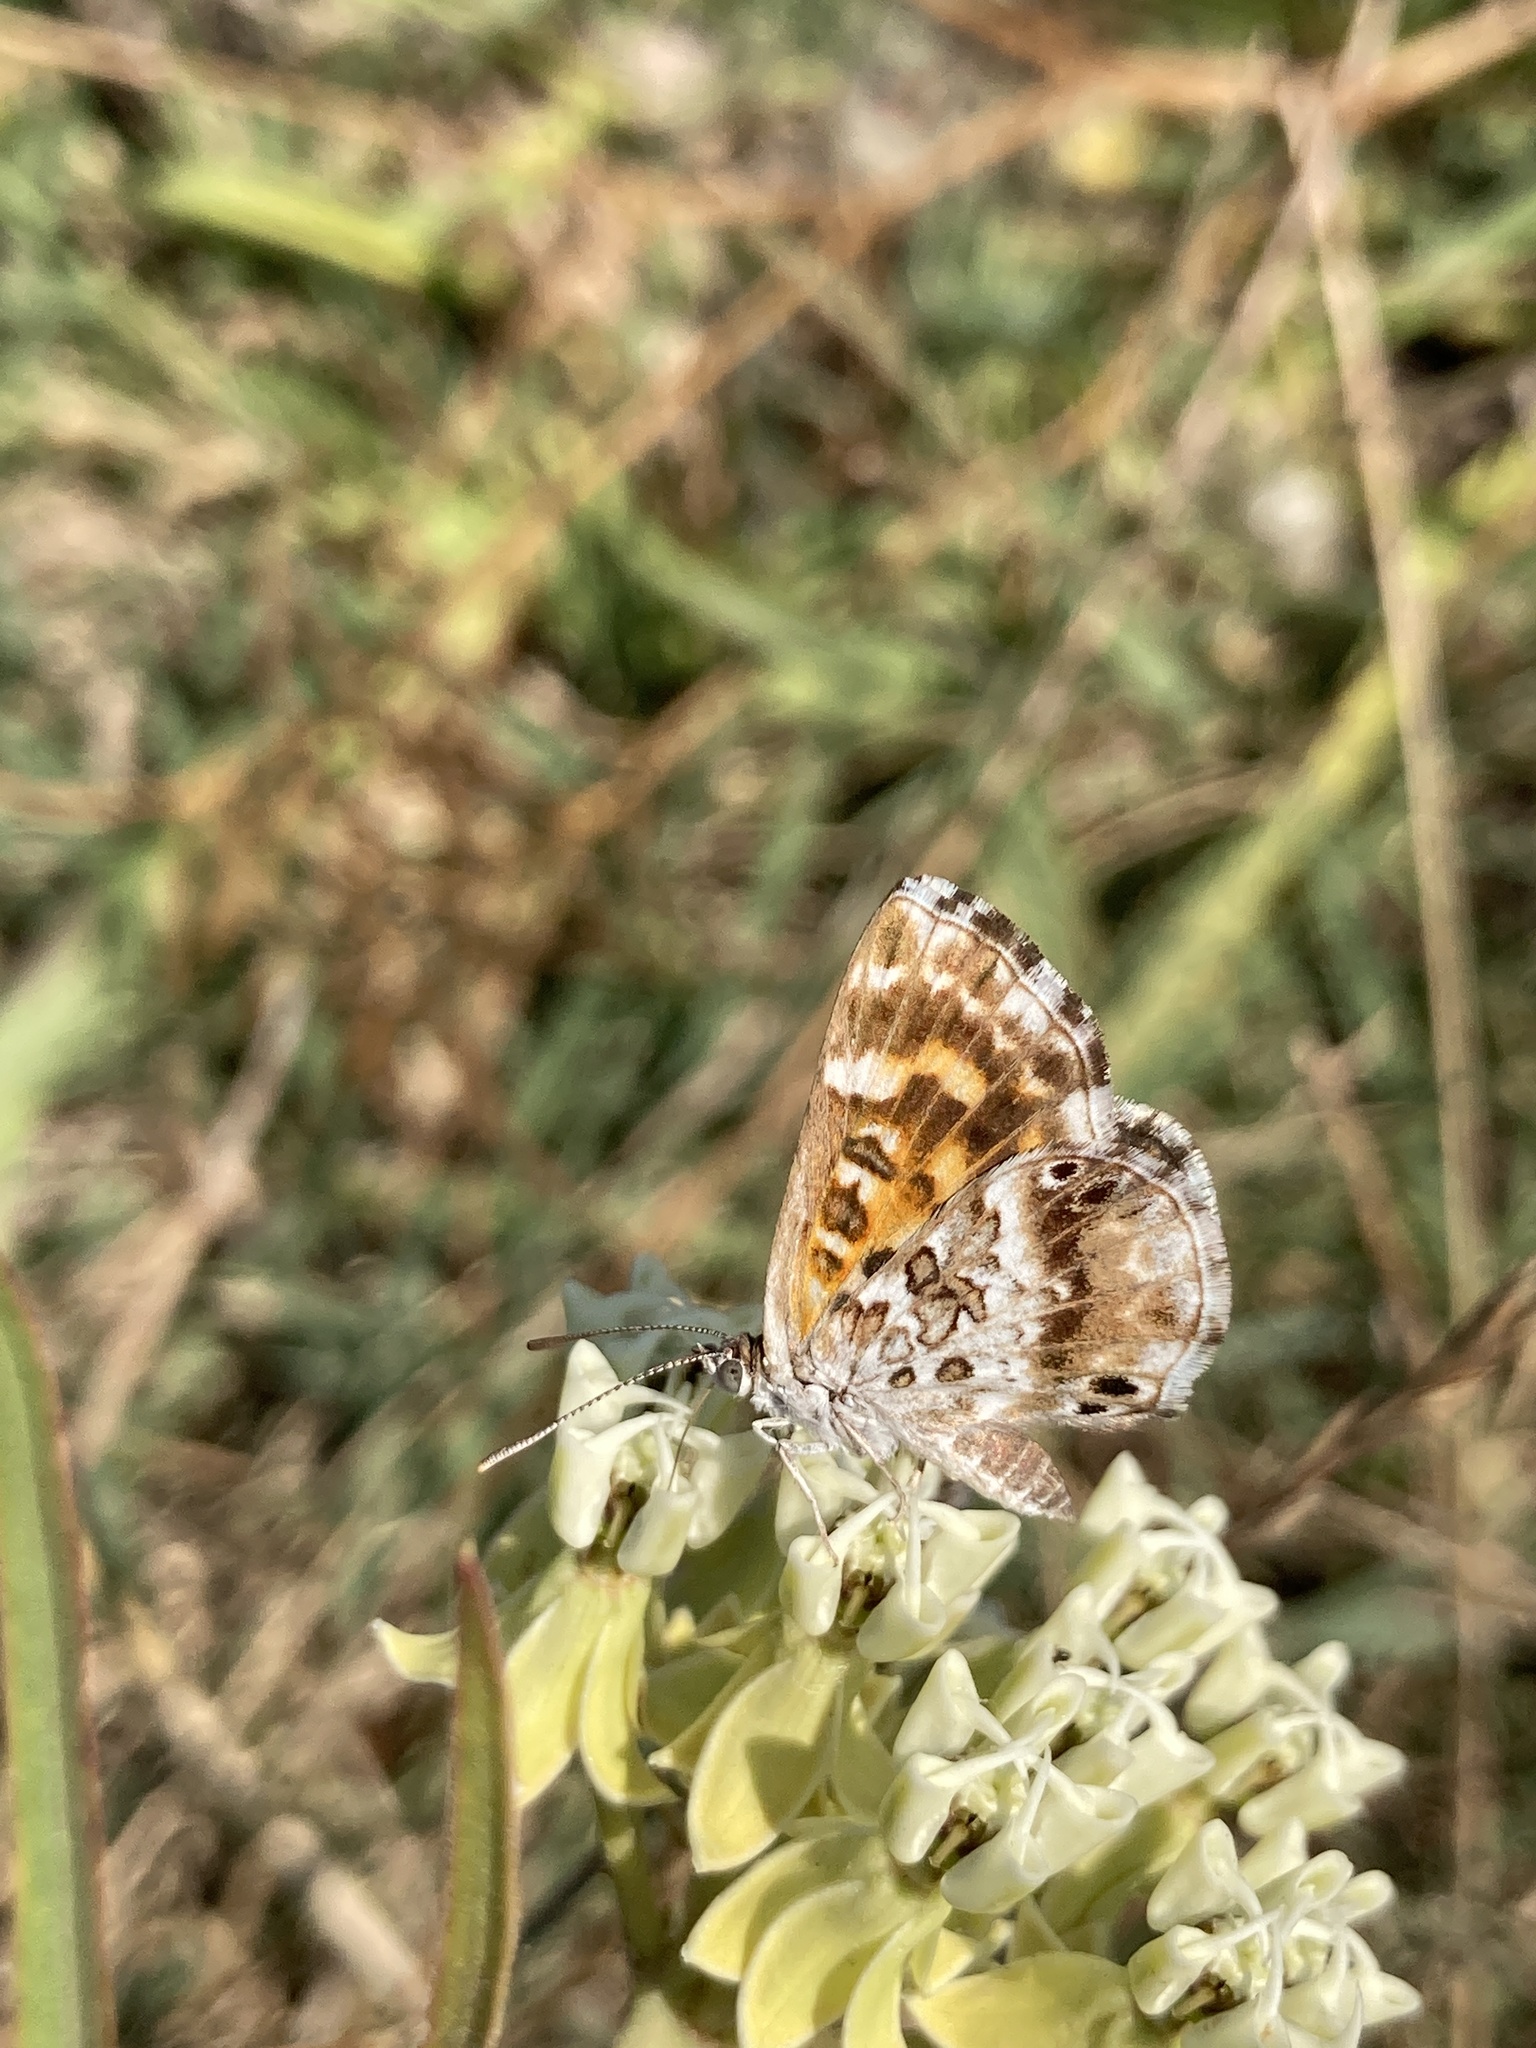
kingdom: Animalia
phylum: Arthropoda
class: Insecta
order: Lepidoptera
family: Lycaenidae
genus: Aricoris
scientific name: Aricoris signata
